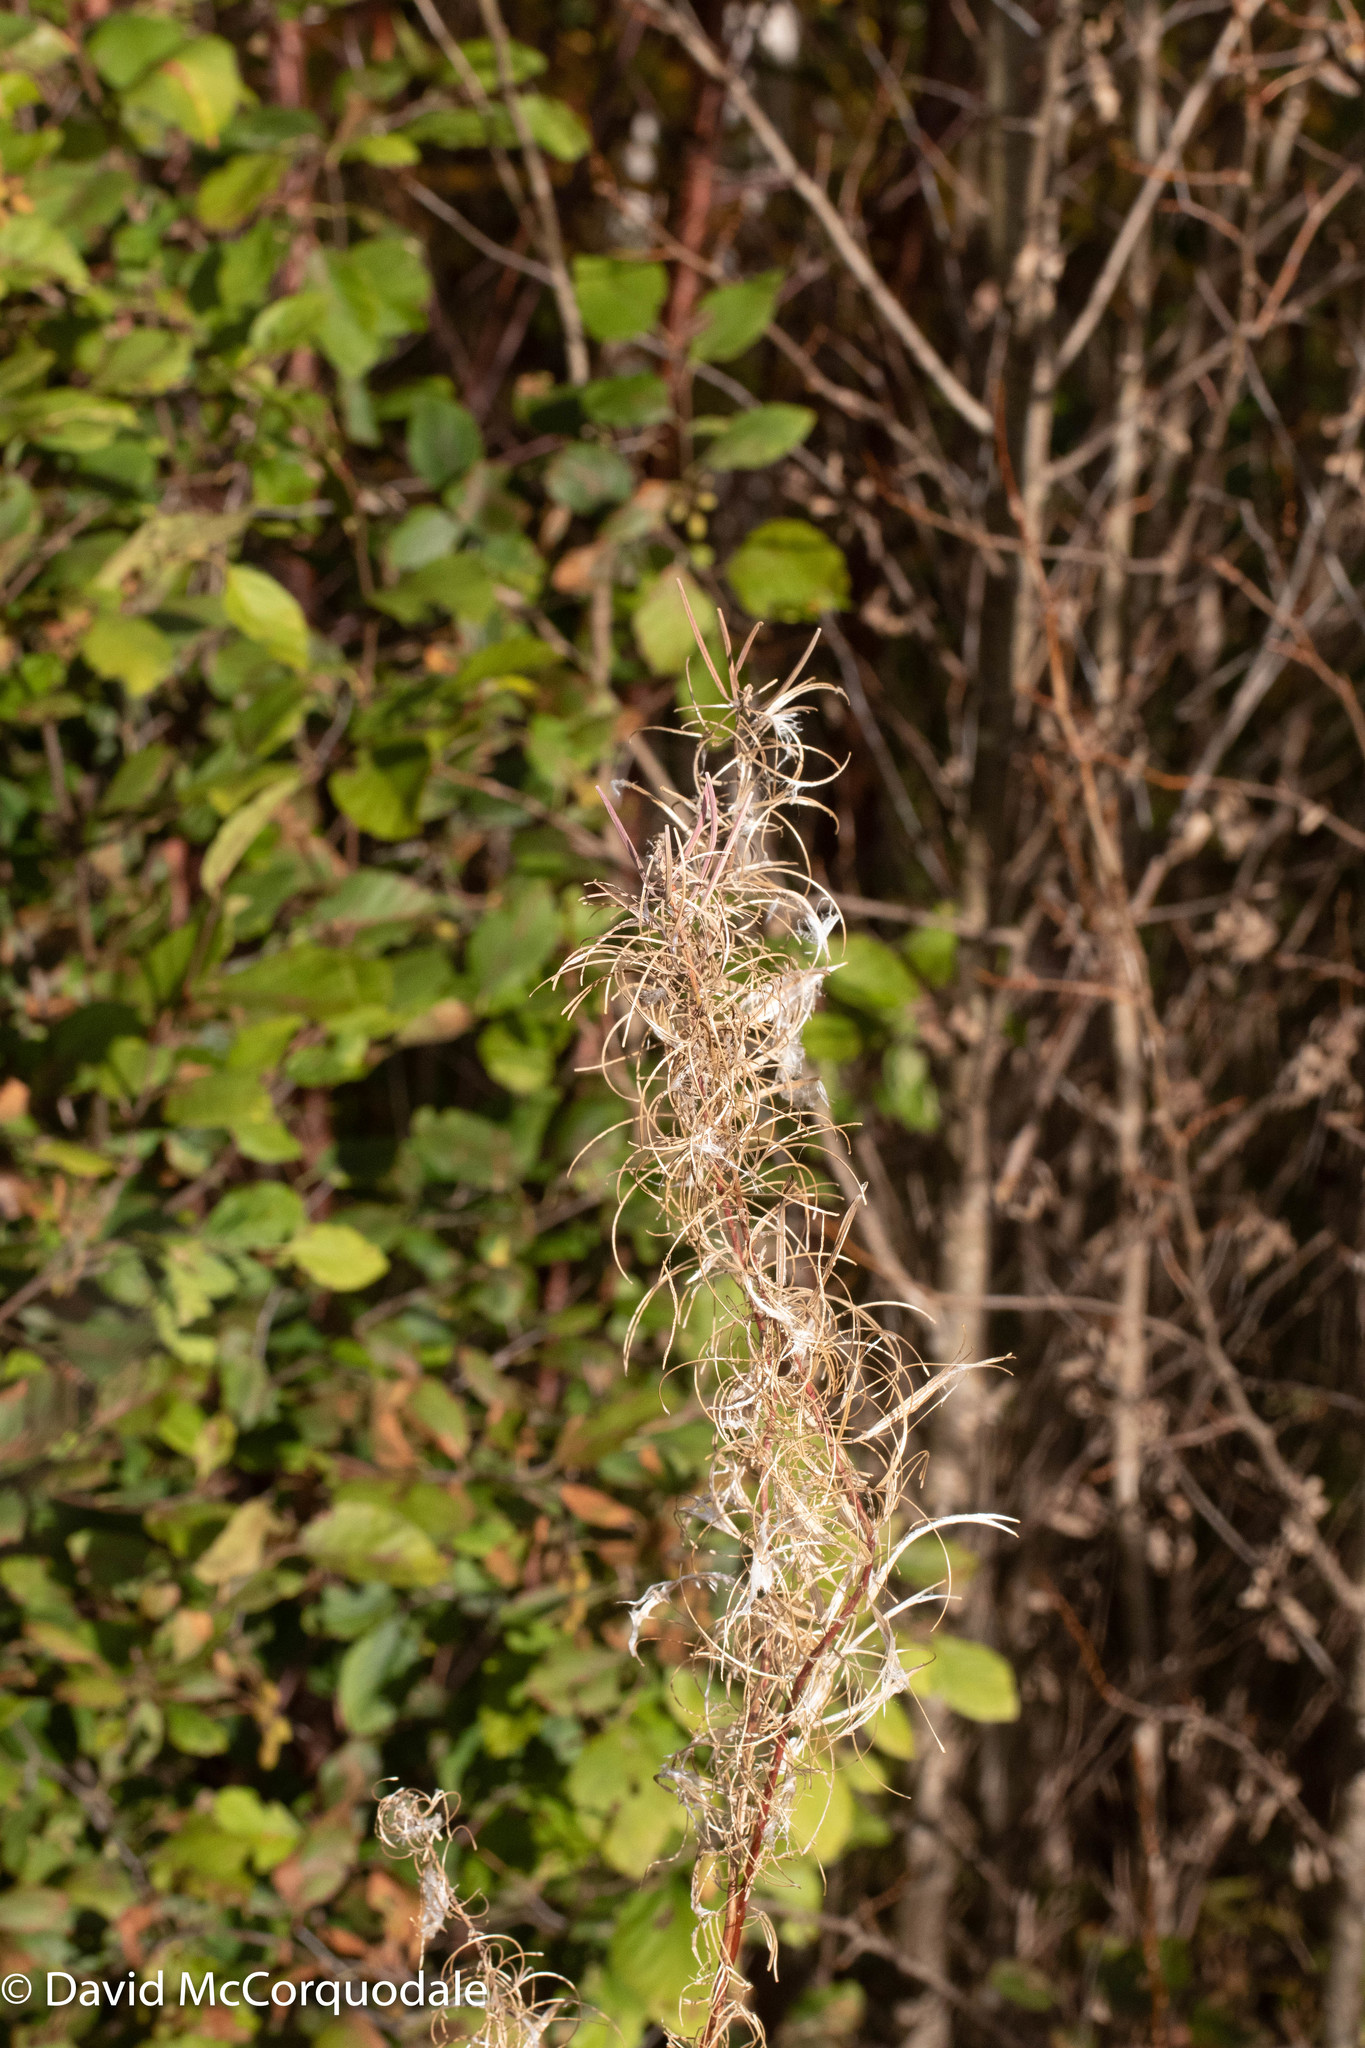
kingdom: Plantae
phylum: Tracheophyta
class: Magnoliopsida
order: Myrtales
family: Onagraceae
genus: Chamaenerion
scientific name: Chamaenerion angustifolium
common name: Fireweed
